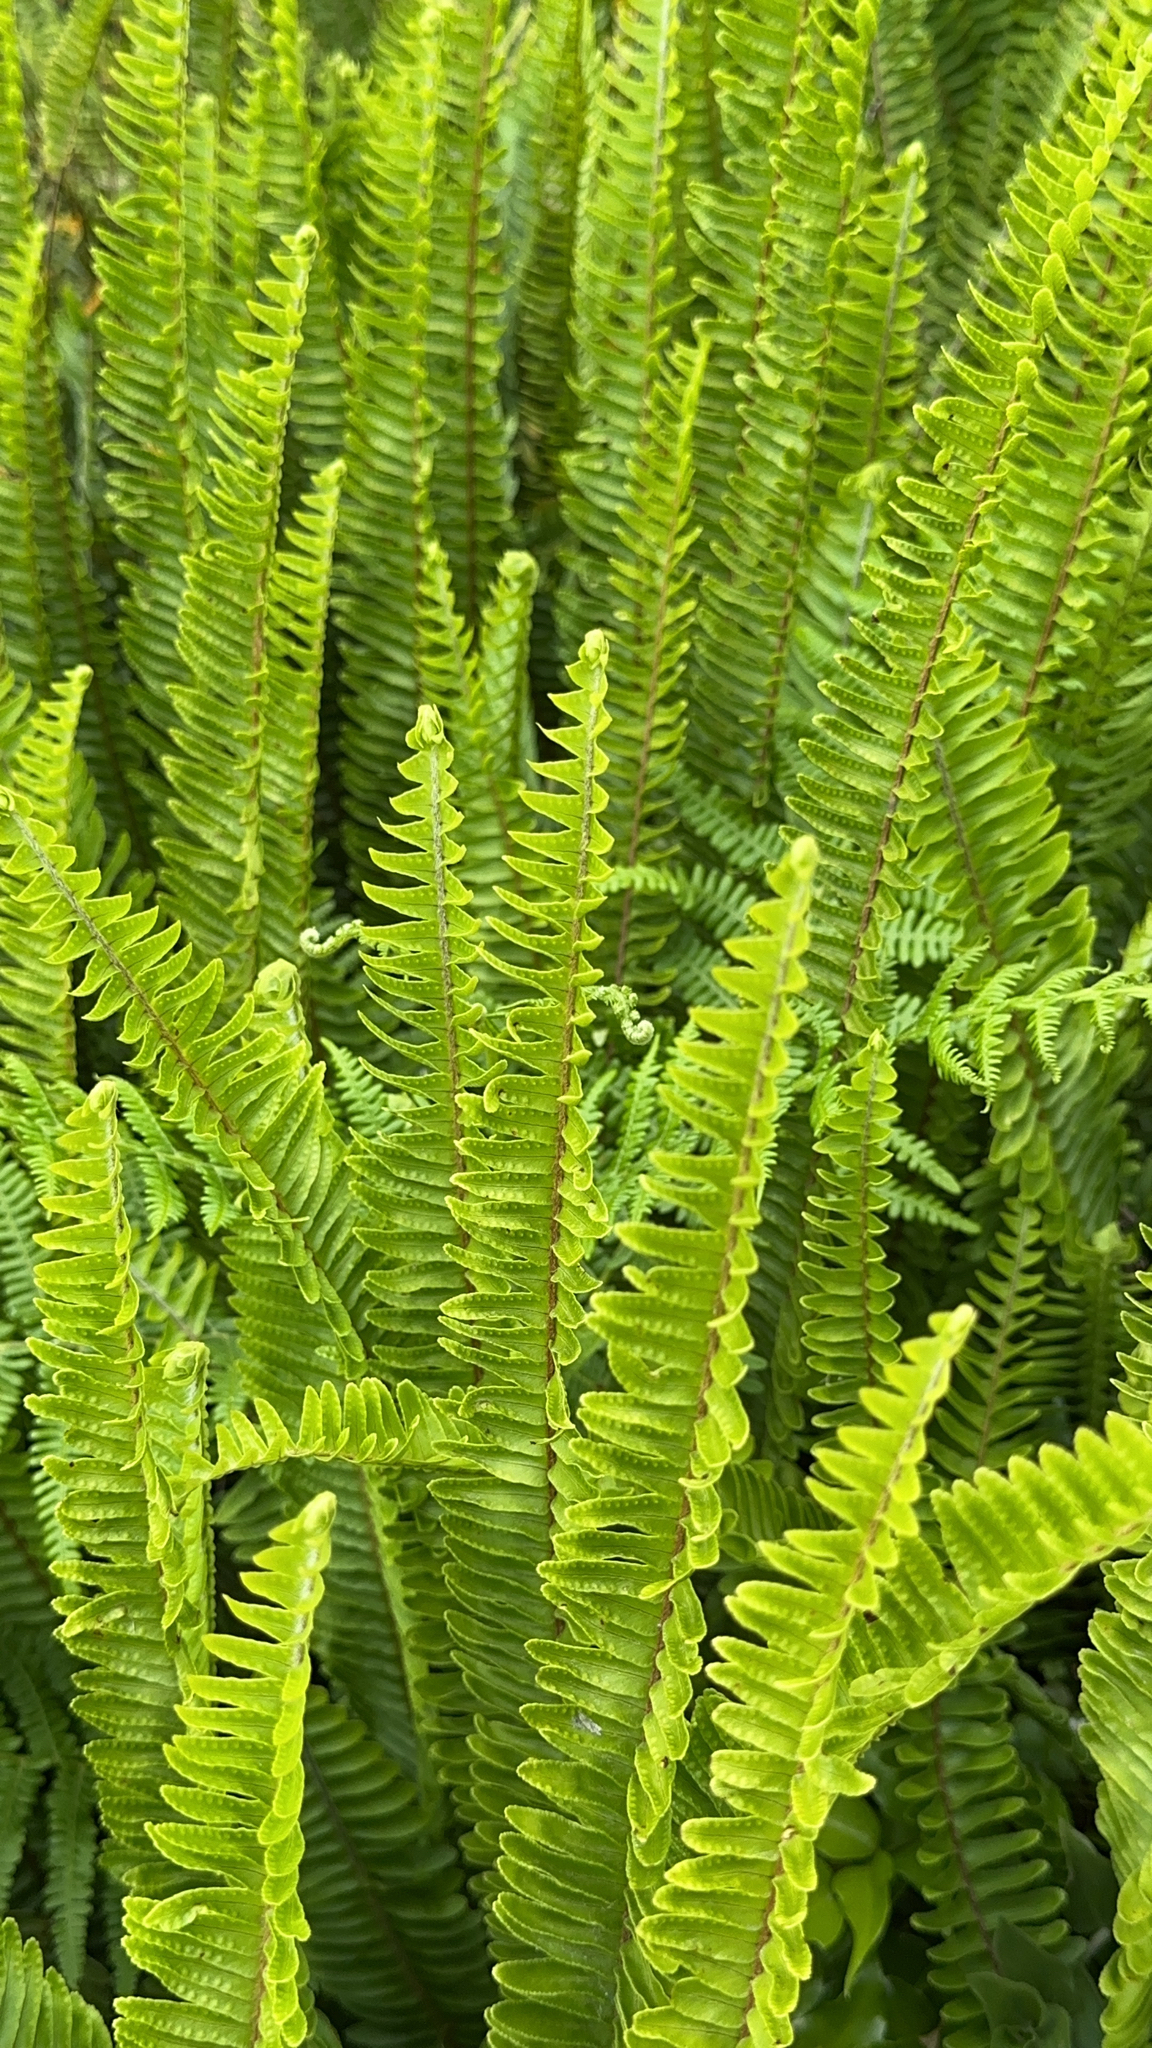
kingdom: Plantae
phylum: Tracheophyta
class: Polypodiopsida
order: Polypodiales
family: Nephrolepidaceae
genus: Nephrolepis
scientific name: Nephrolepis cordifolia
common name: Narrow swordfern
